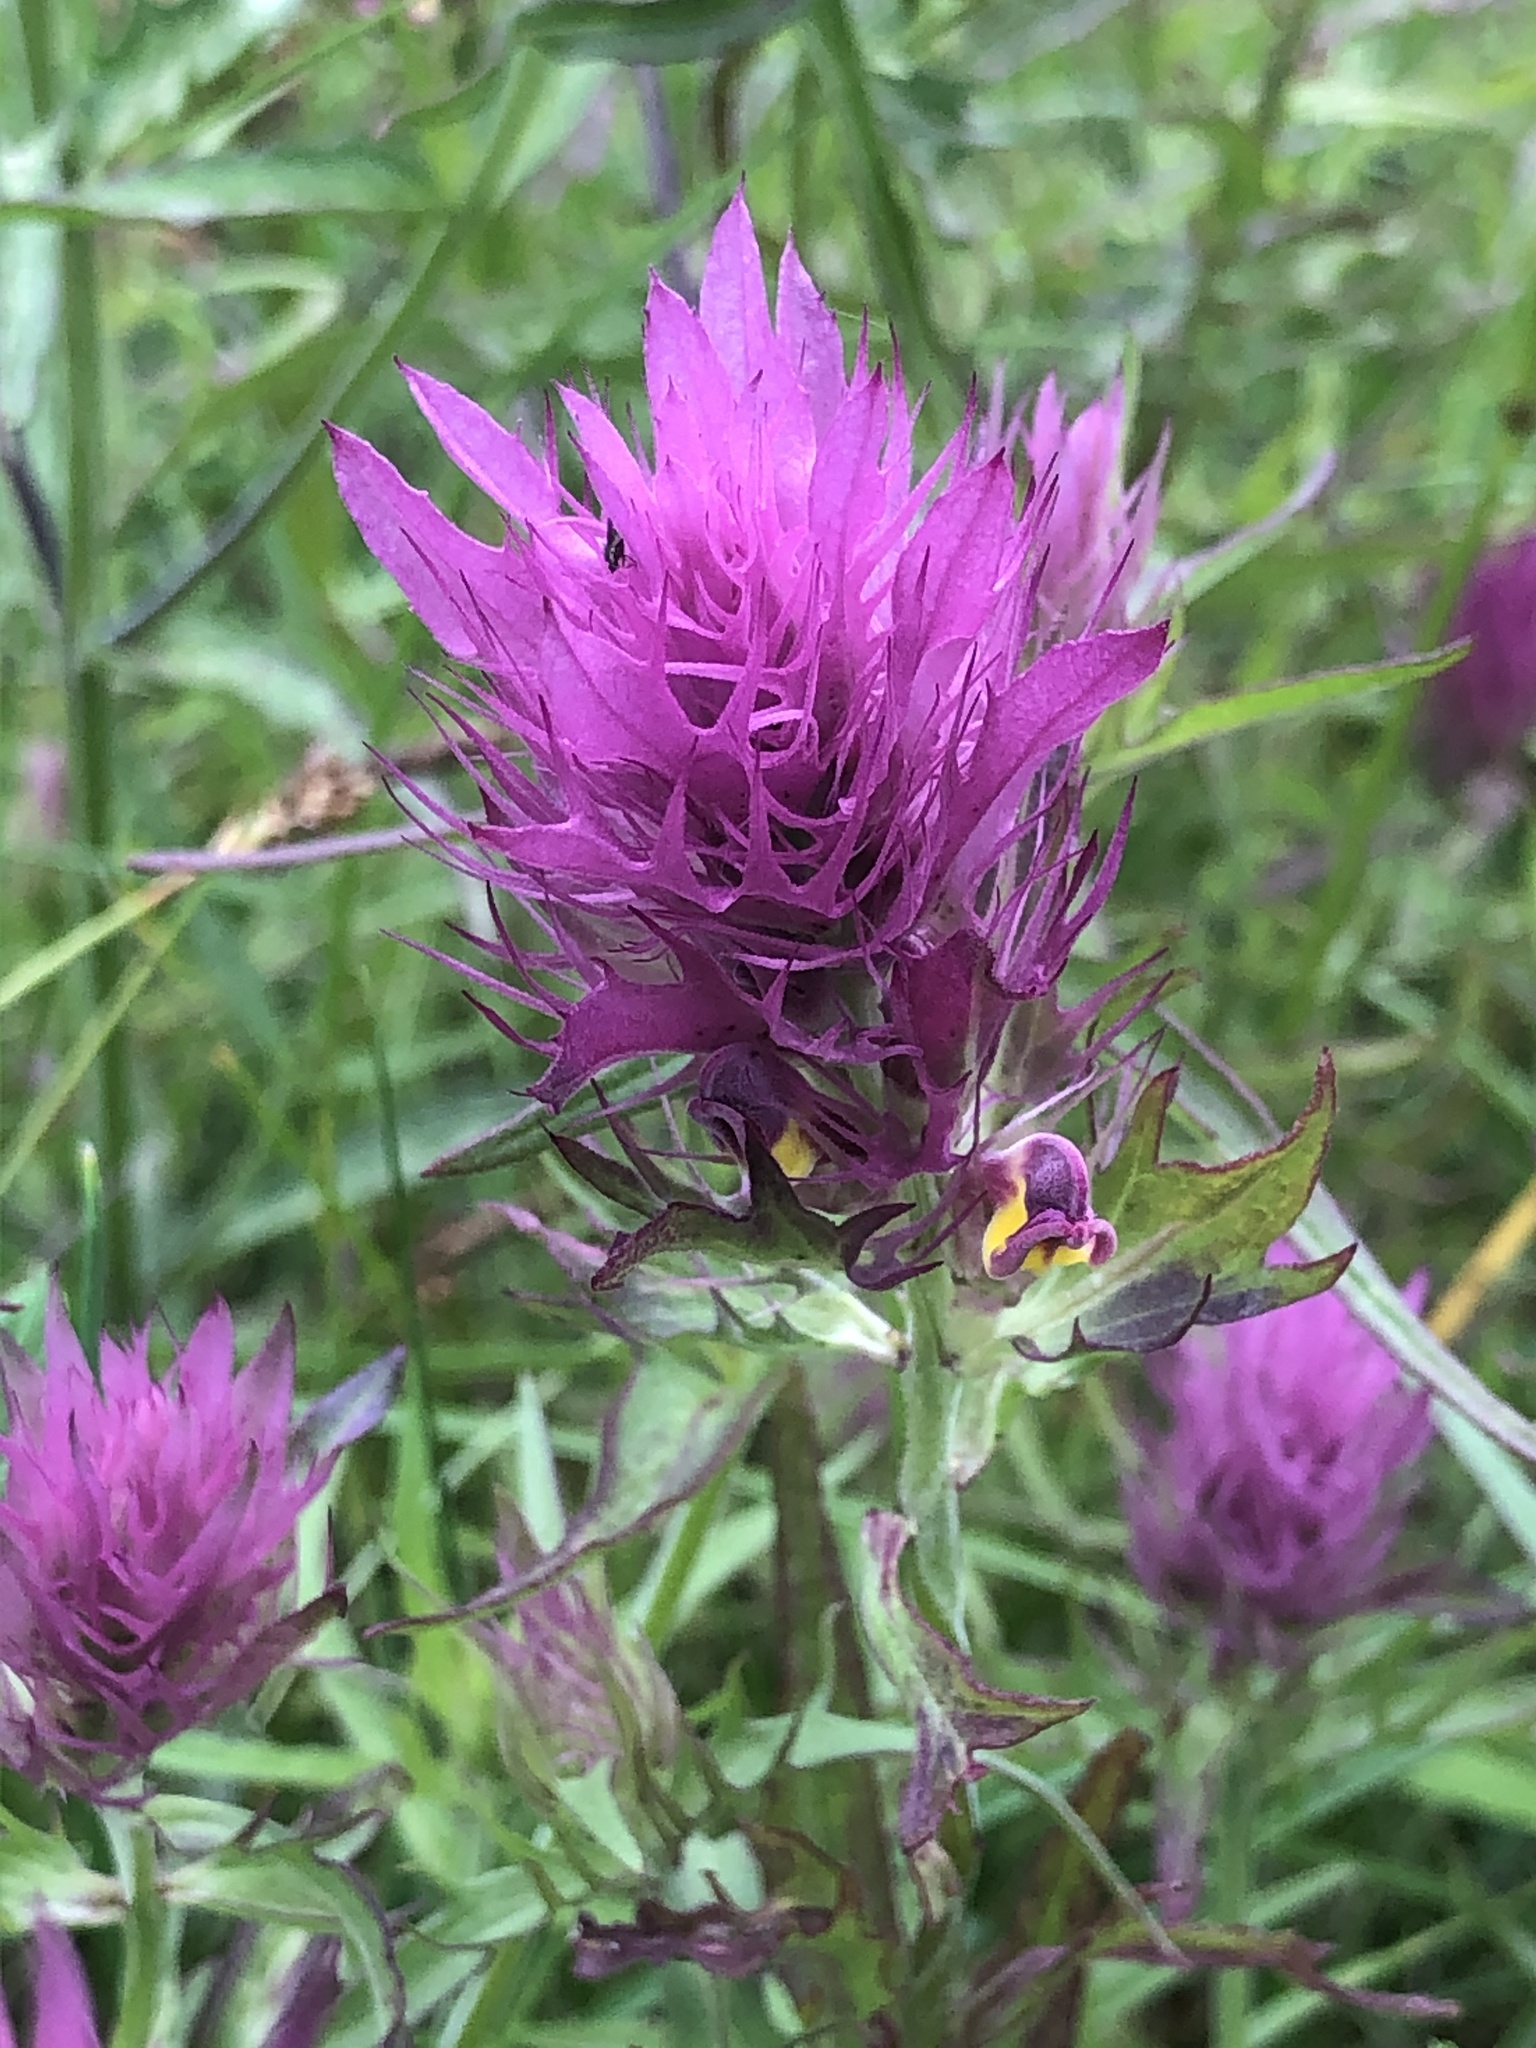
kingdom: Plantae
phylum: Tracheophyta
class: Magnoliopsida
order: Lamiales
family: Orobanchaceae
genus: Melampyrum
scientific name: Melampyrum arvense
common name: Field cow-wheat
